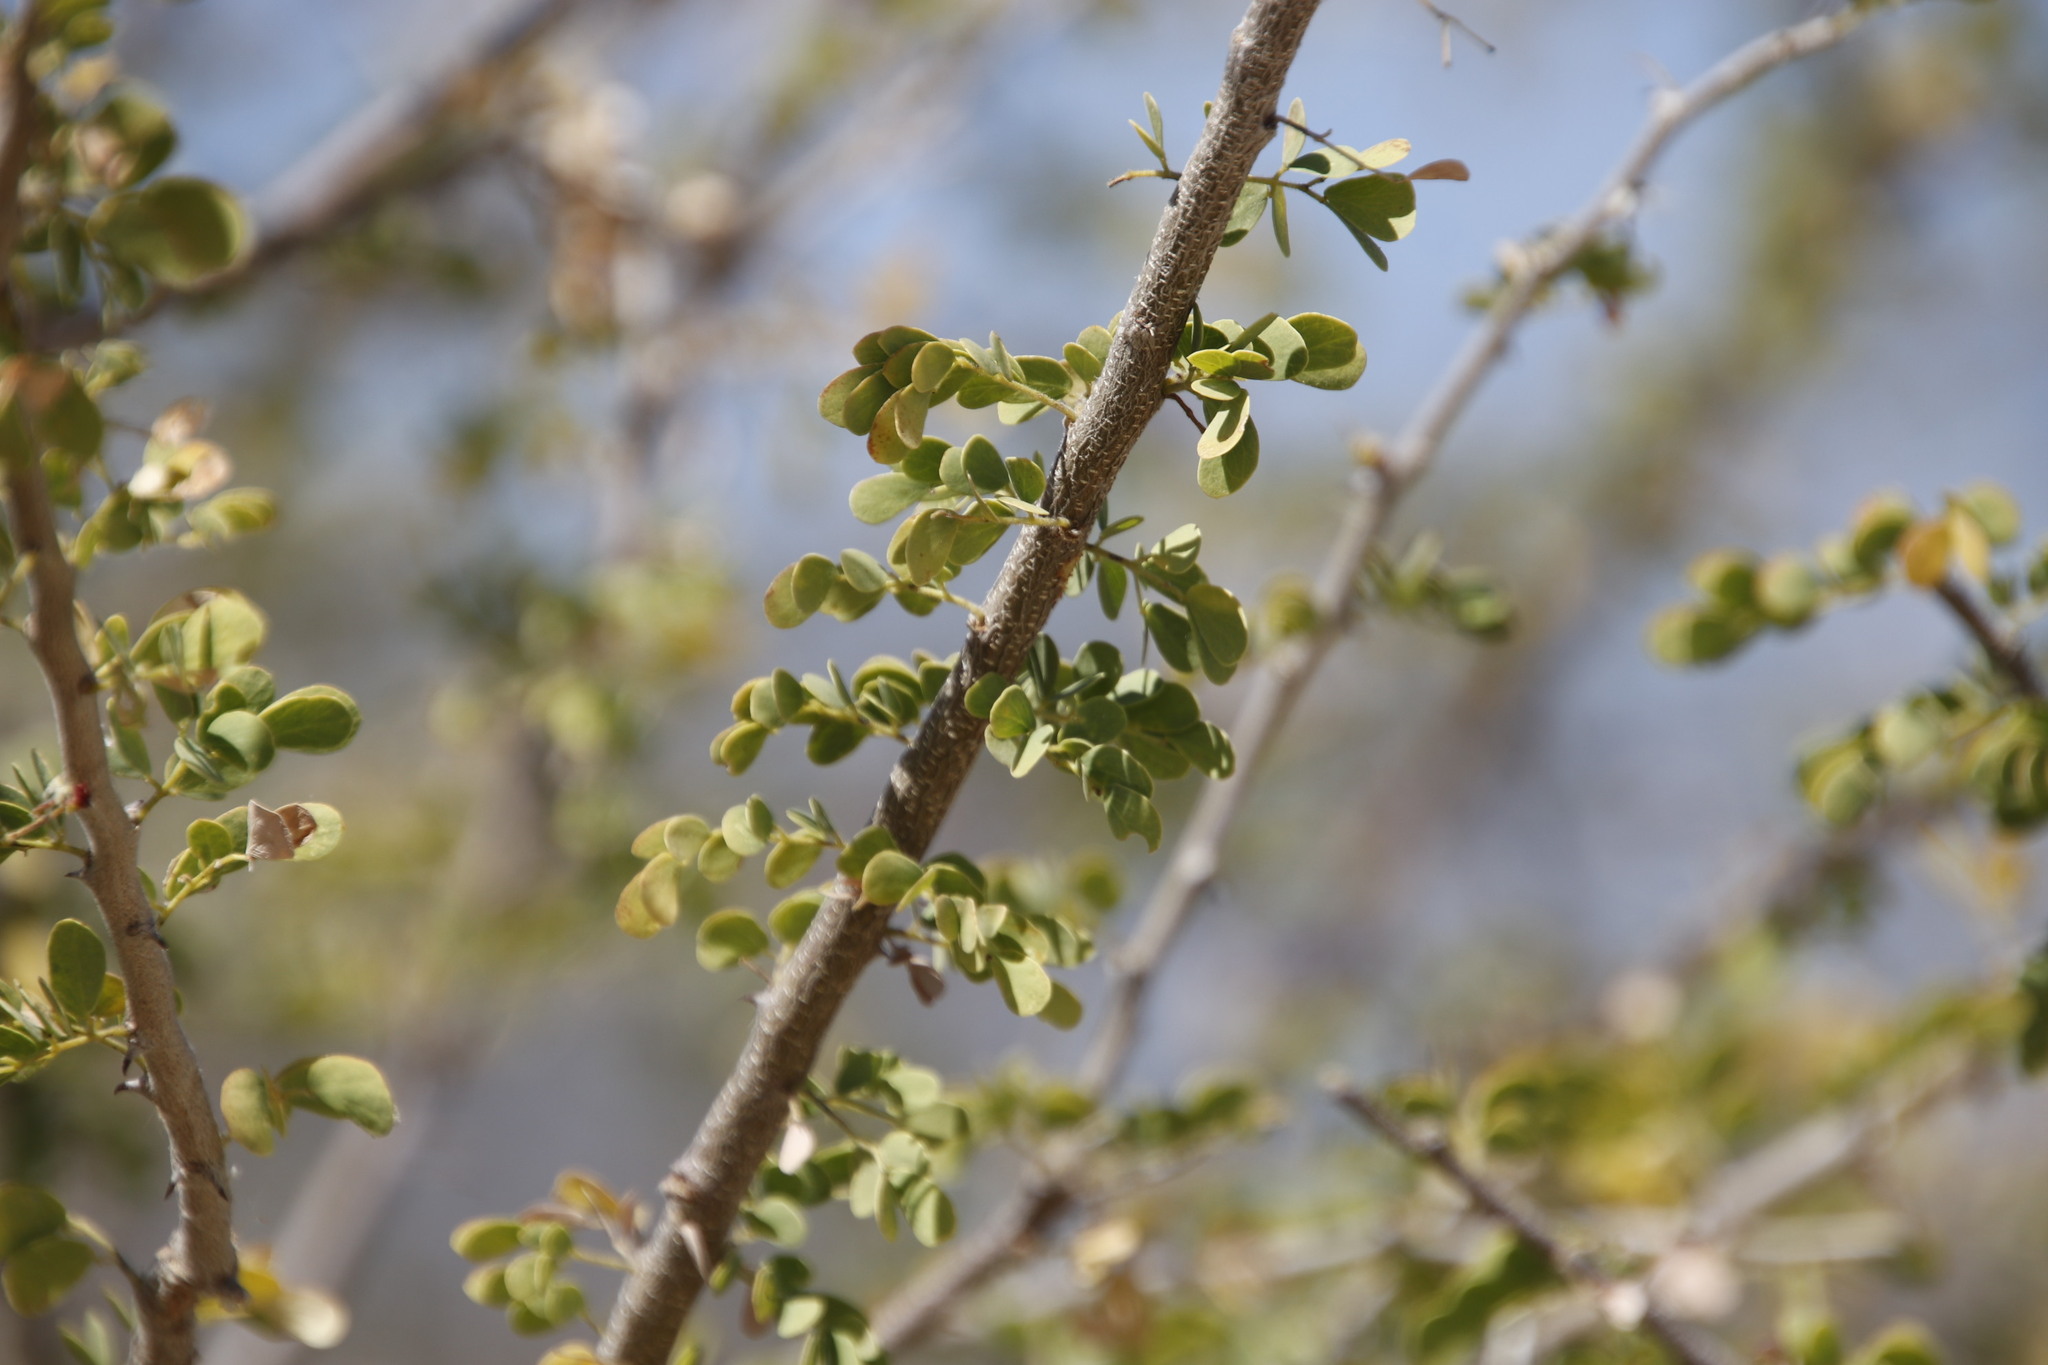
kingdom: Plantae
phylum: Tracheophyta
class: Magnoliopsida
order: Fabales
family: Fabaceae
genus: Senegalia
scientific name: Senegalia mellifera
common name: Hookthorn
